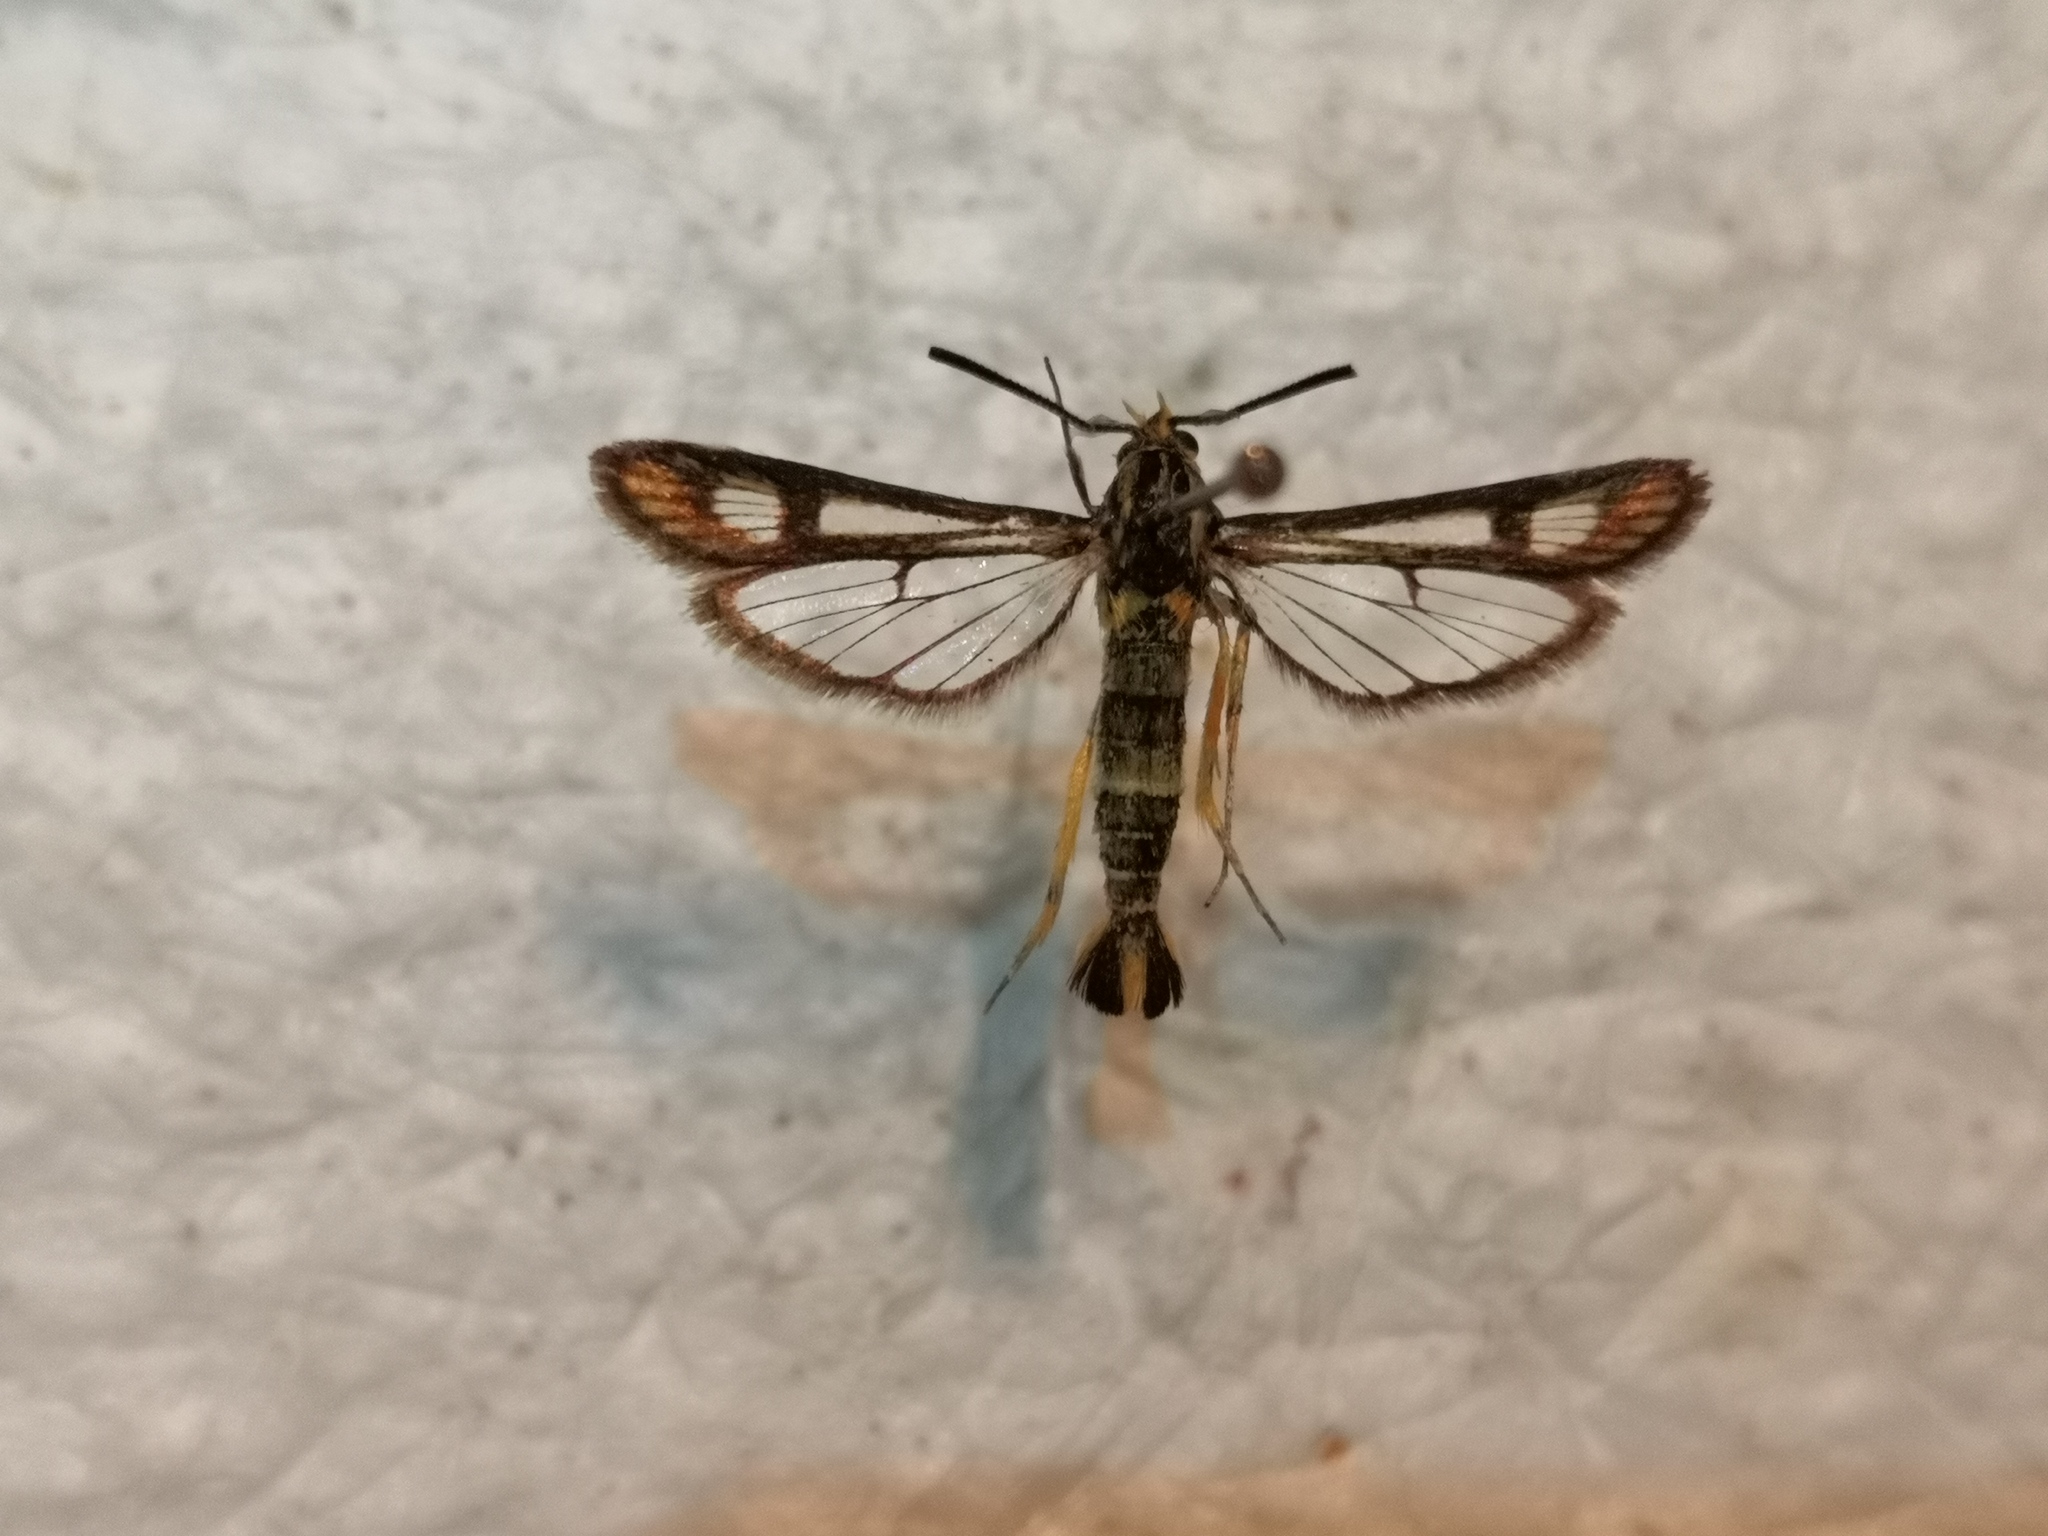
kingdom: Animalia
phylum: Arthropoda
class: Insecta
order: Lepidoptera
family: Sesiidae
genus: Chamaesphecia
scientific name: Chamaesphecia astatiformis
